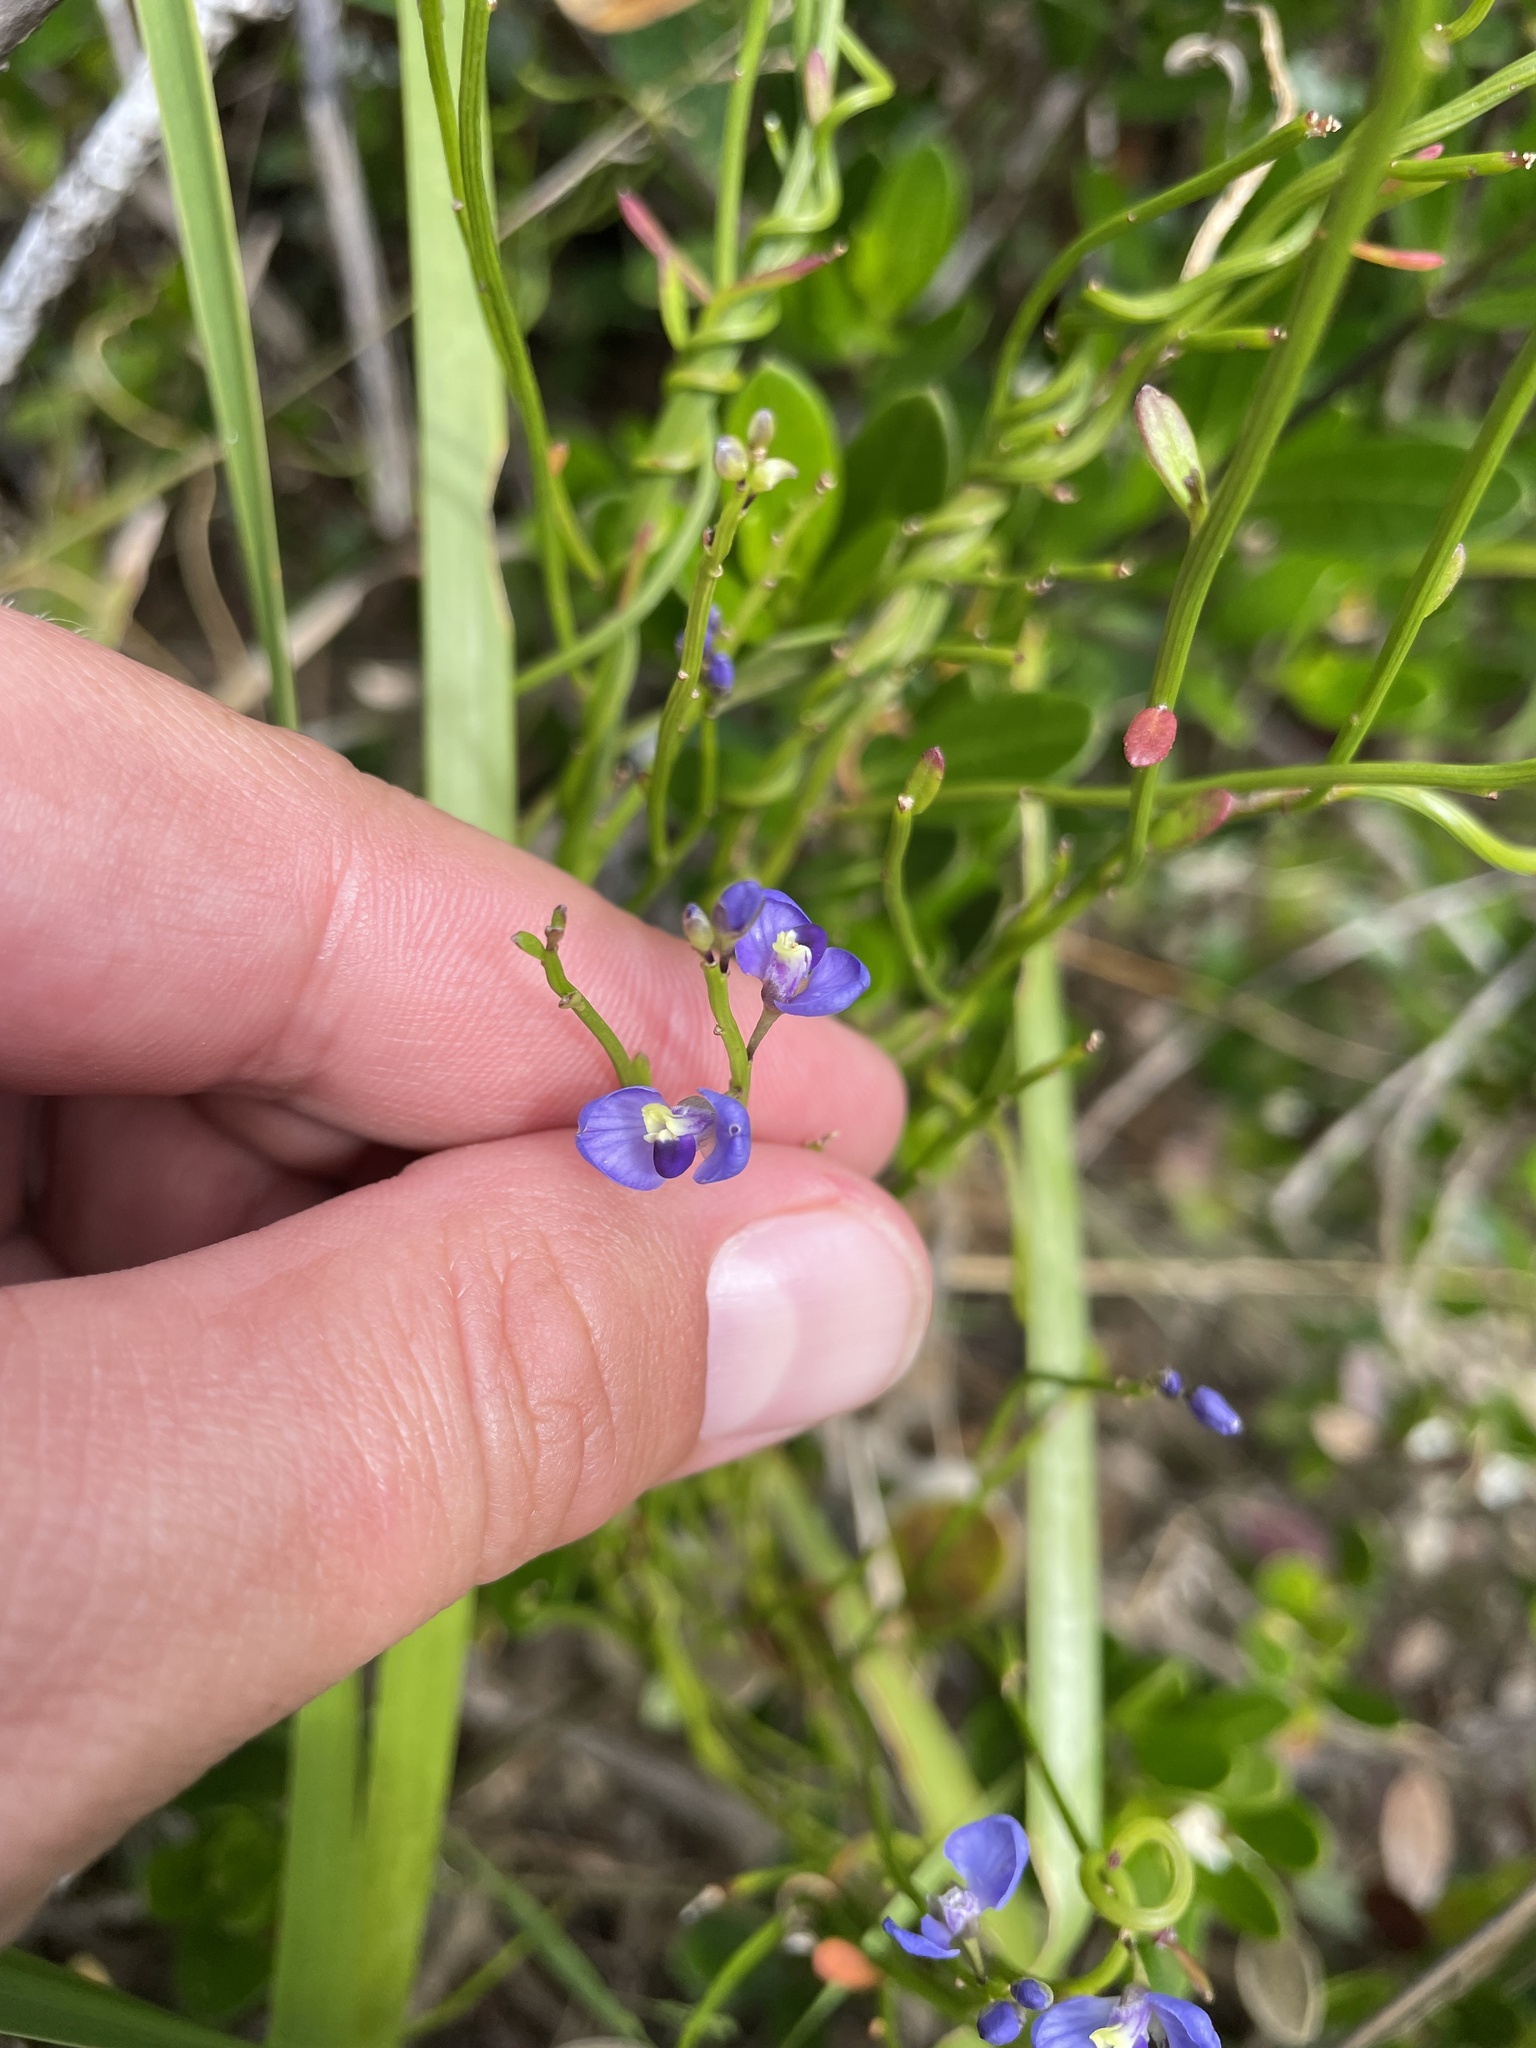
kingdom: Plantae
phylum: Tracheophyta
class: Magnoliopsida
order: Fabales
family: Polygalaceae
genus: Comesperma
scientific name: Comesperma volubile
